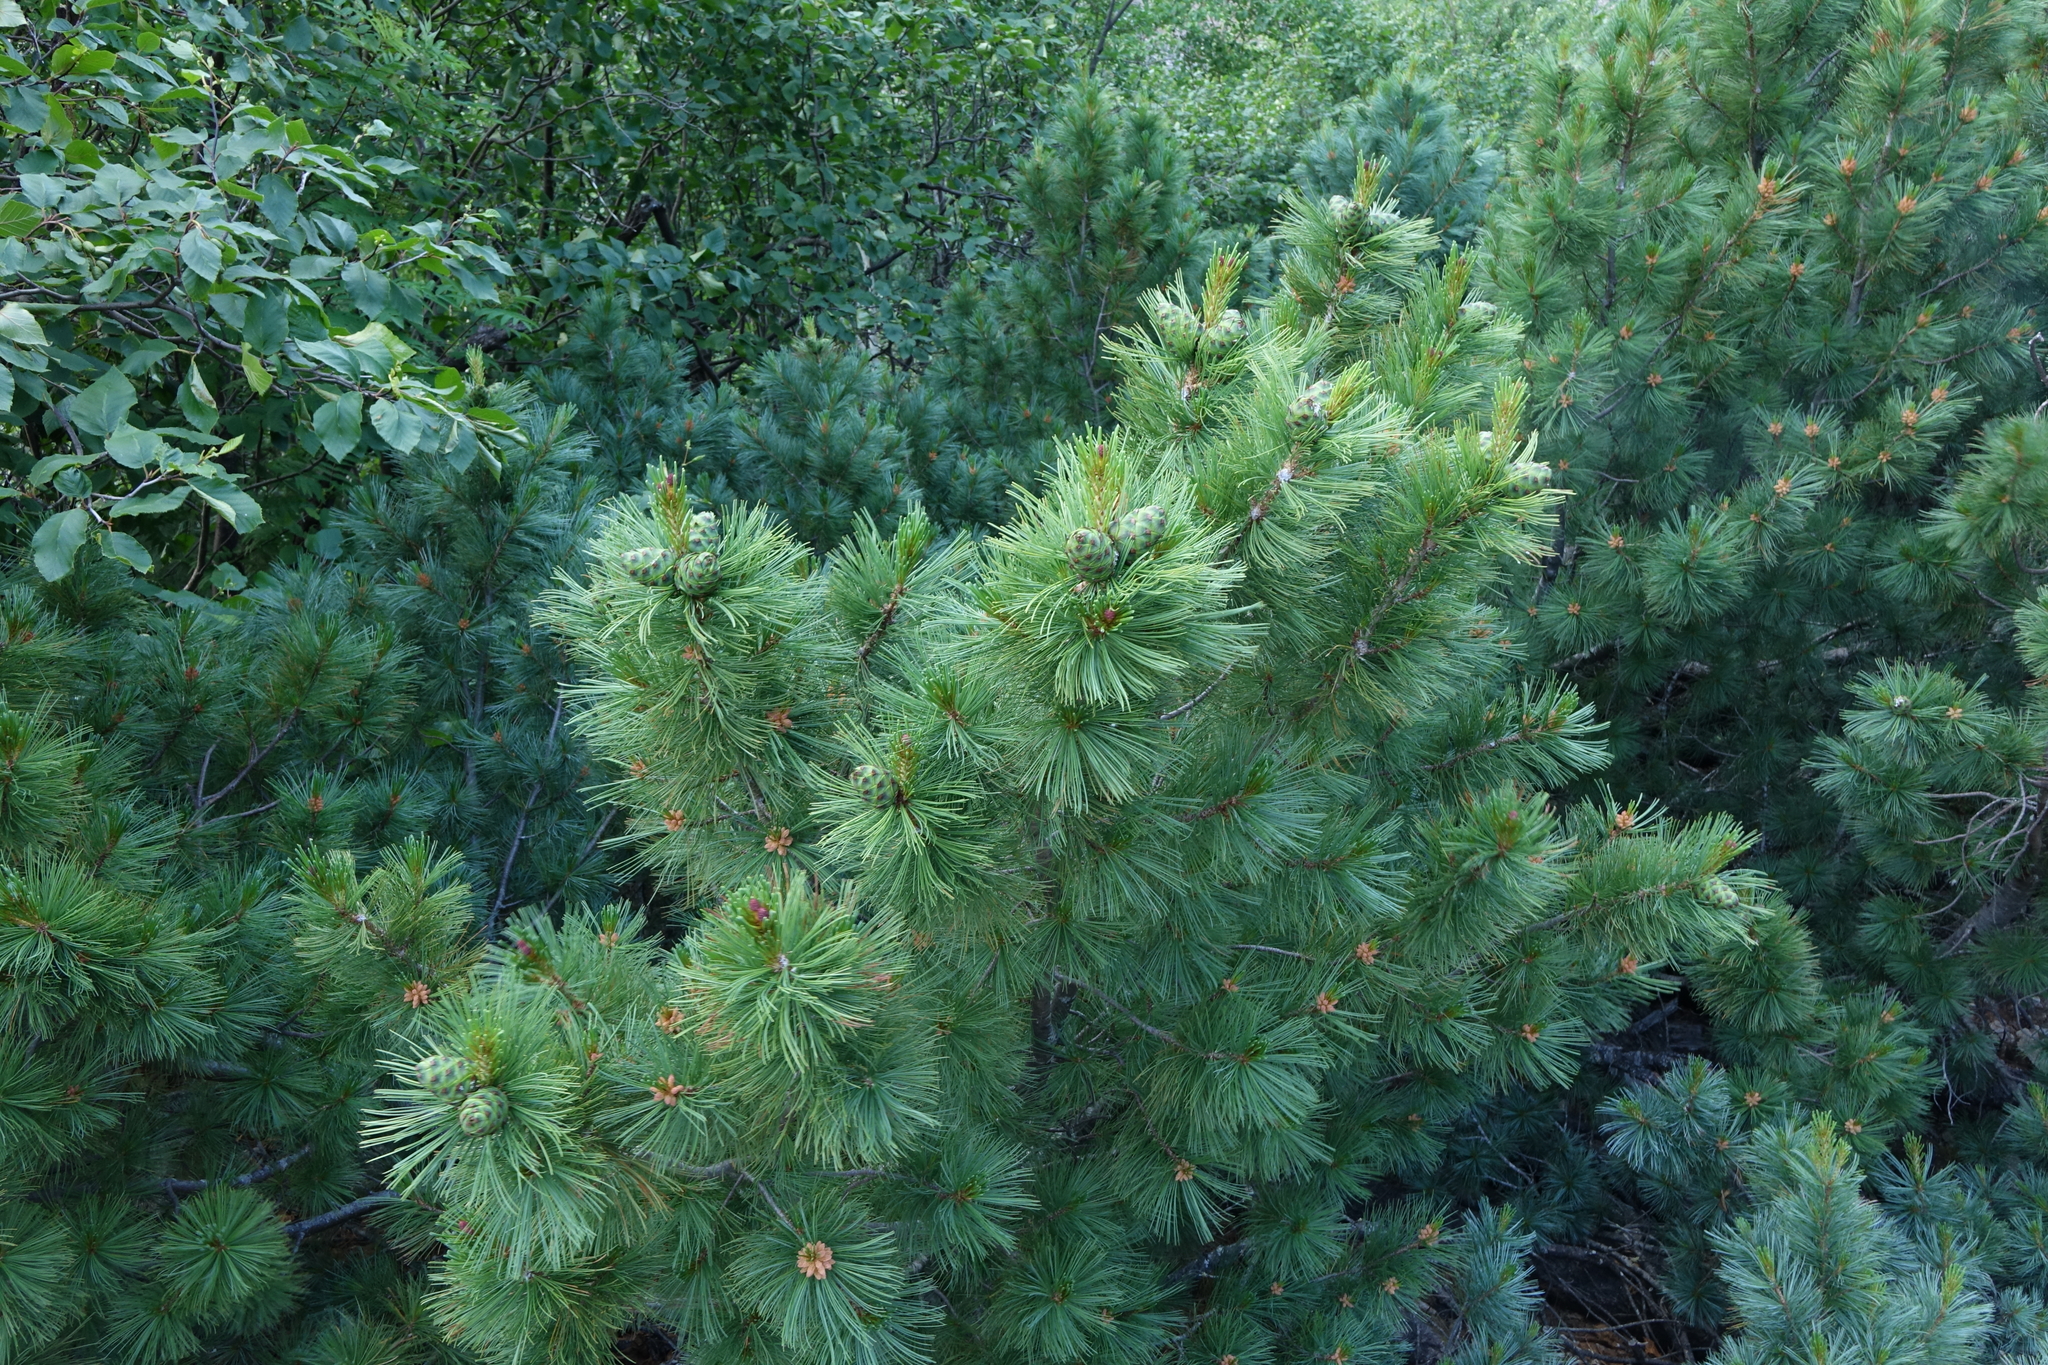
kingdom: Plantae
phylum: Tracheophyta
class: Pinopsida
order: Pinales
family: Pinaceae
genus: Pinus
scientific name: Pinus pumila
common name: Dwarf siberian pine
